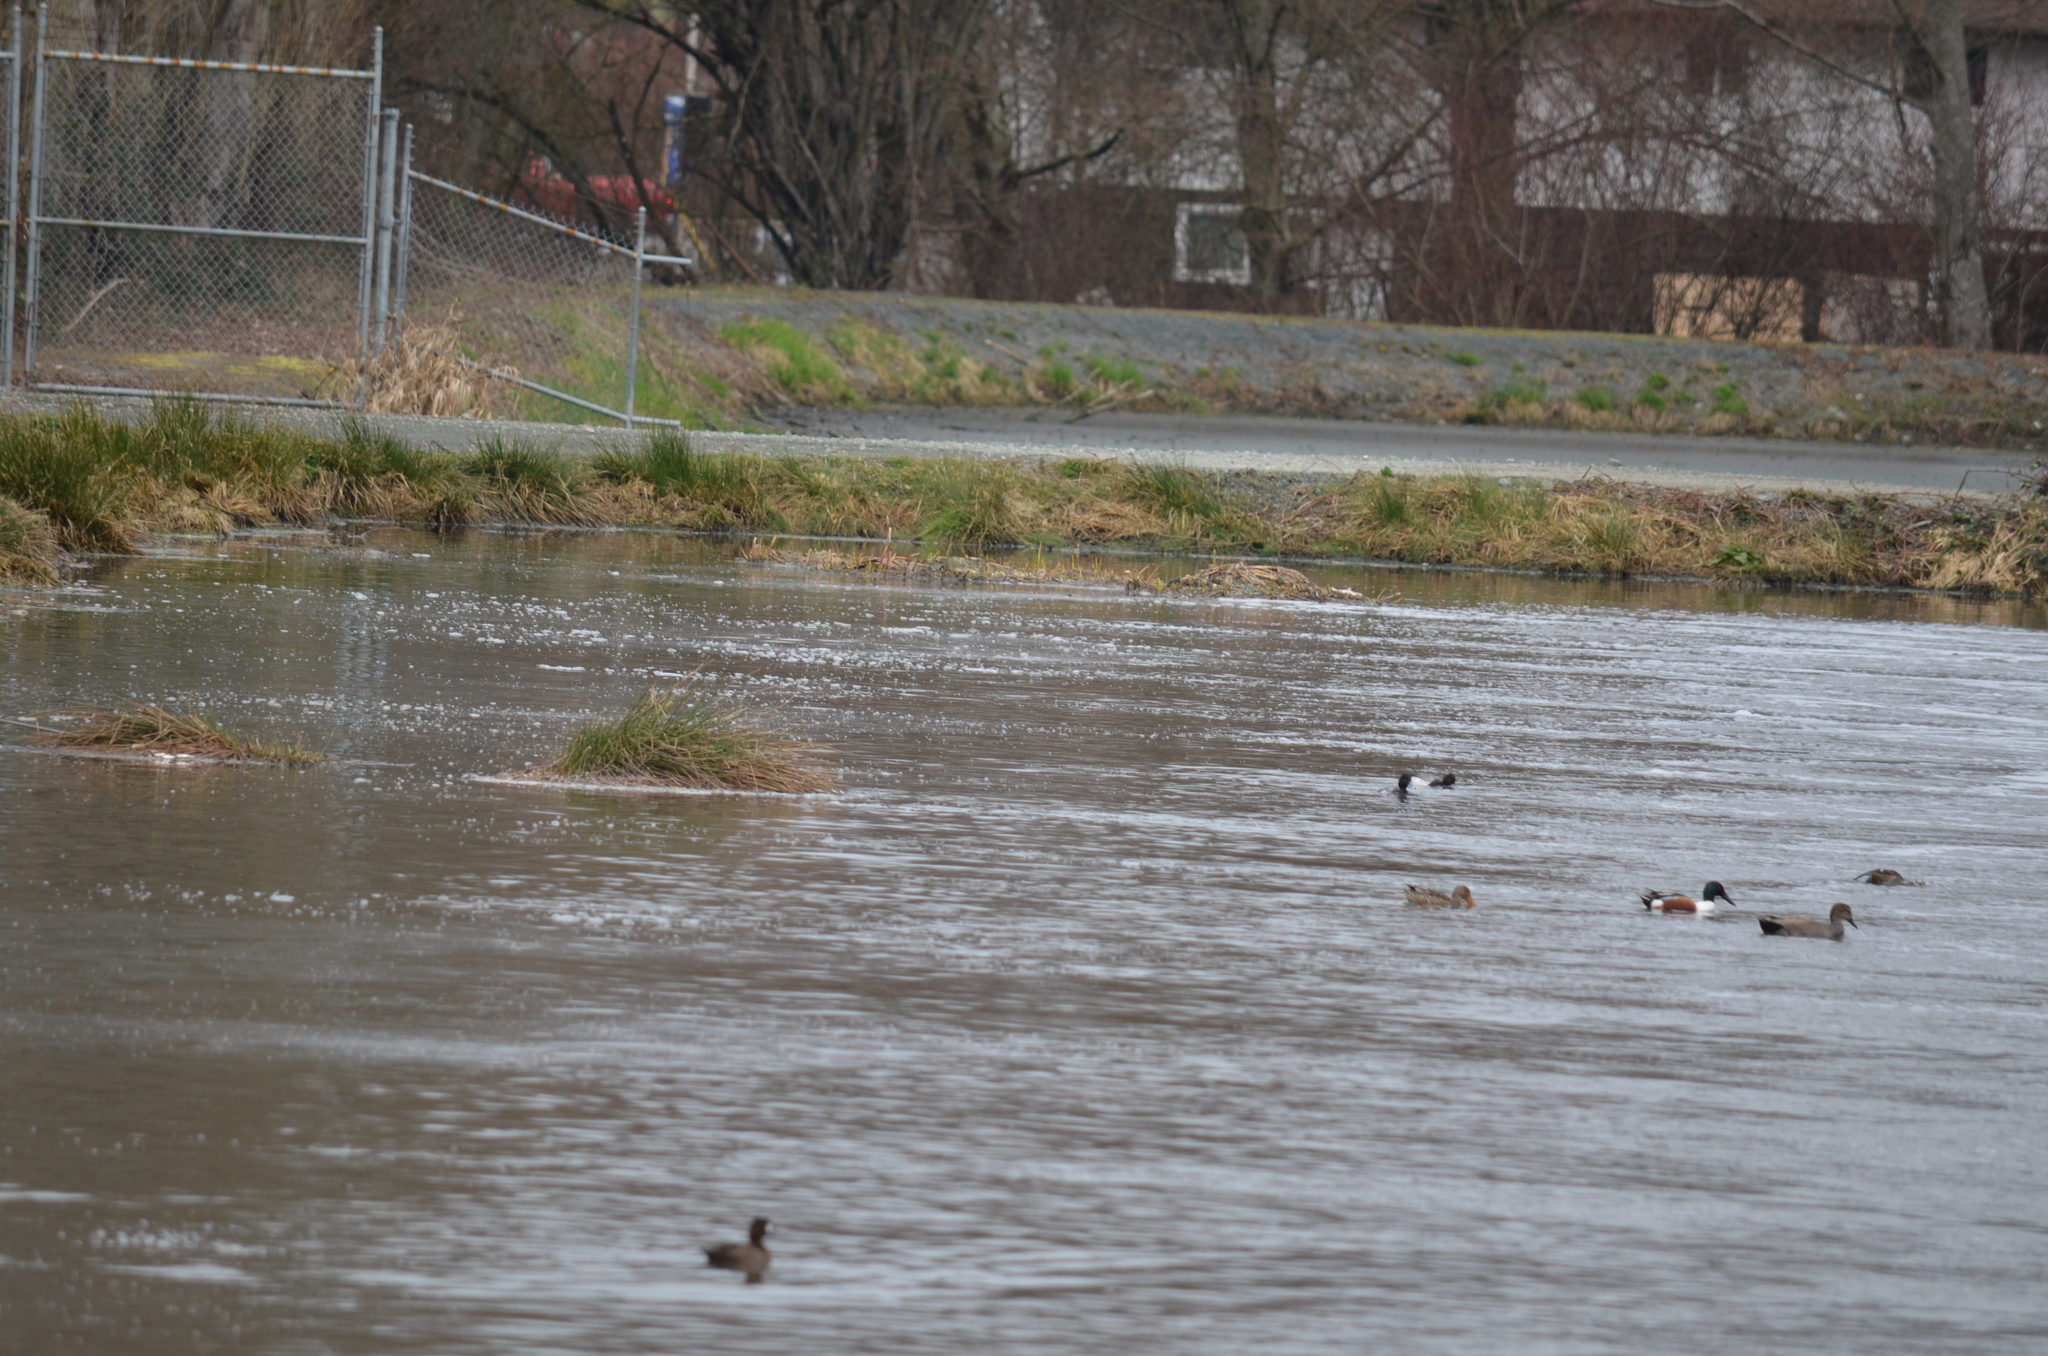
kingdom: Animalia
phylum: Chordata
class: Aves
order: Anseriformes
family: Anatidae
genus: Spatula
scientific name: Spatula clypeata
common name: Northern shoveler
